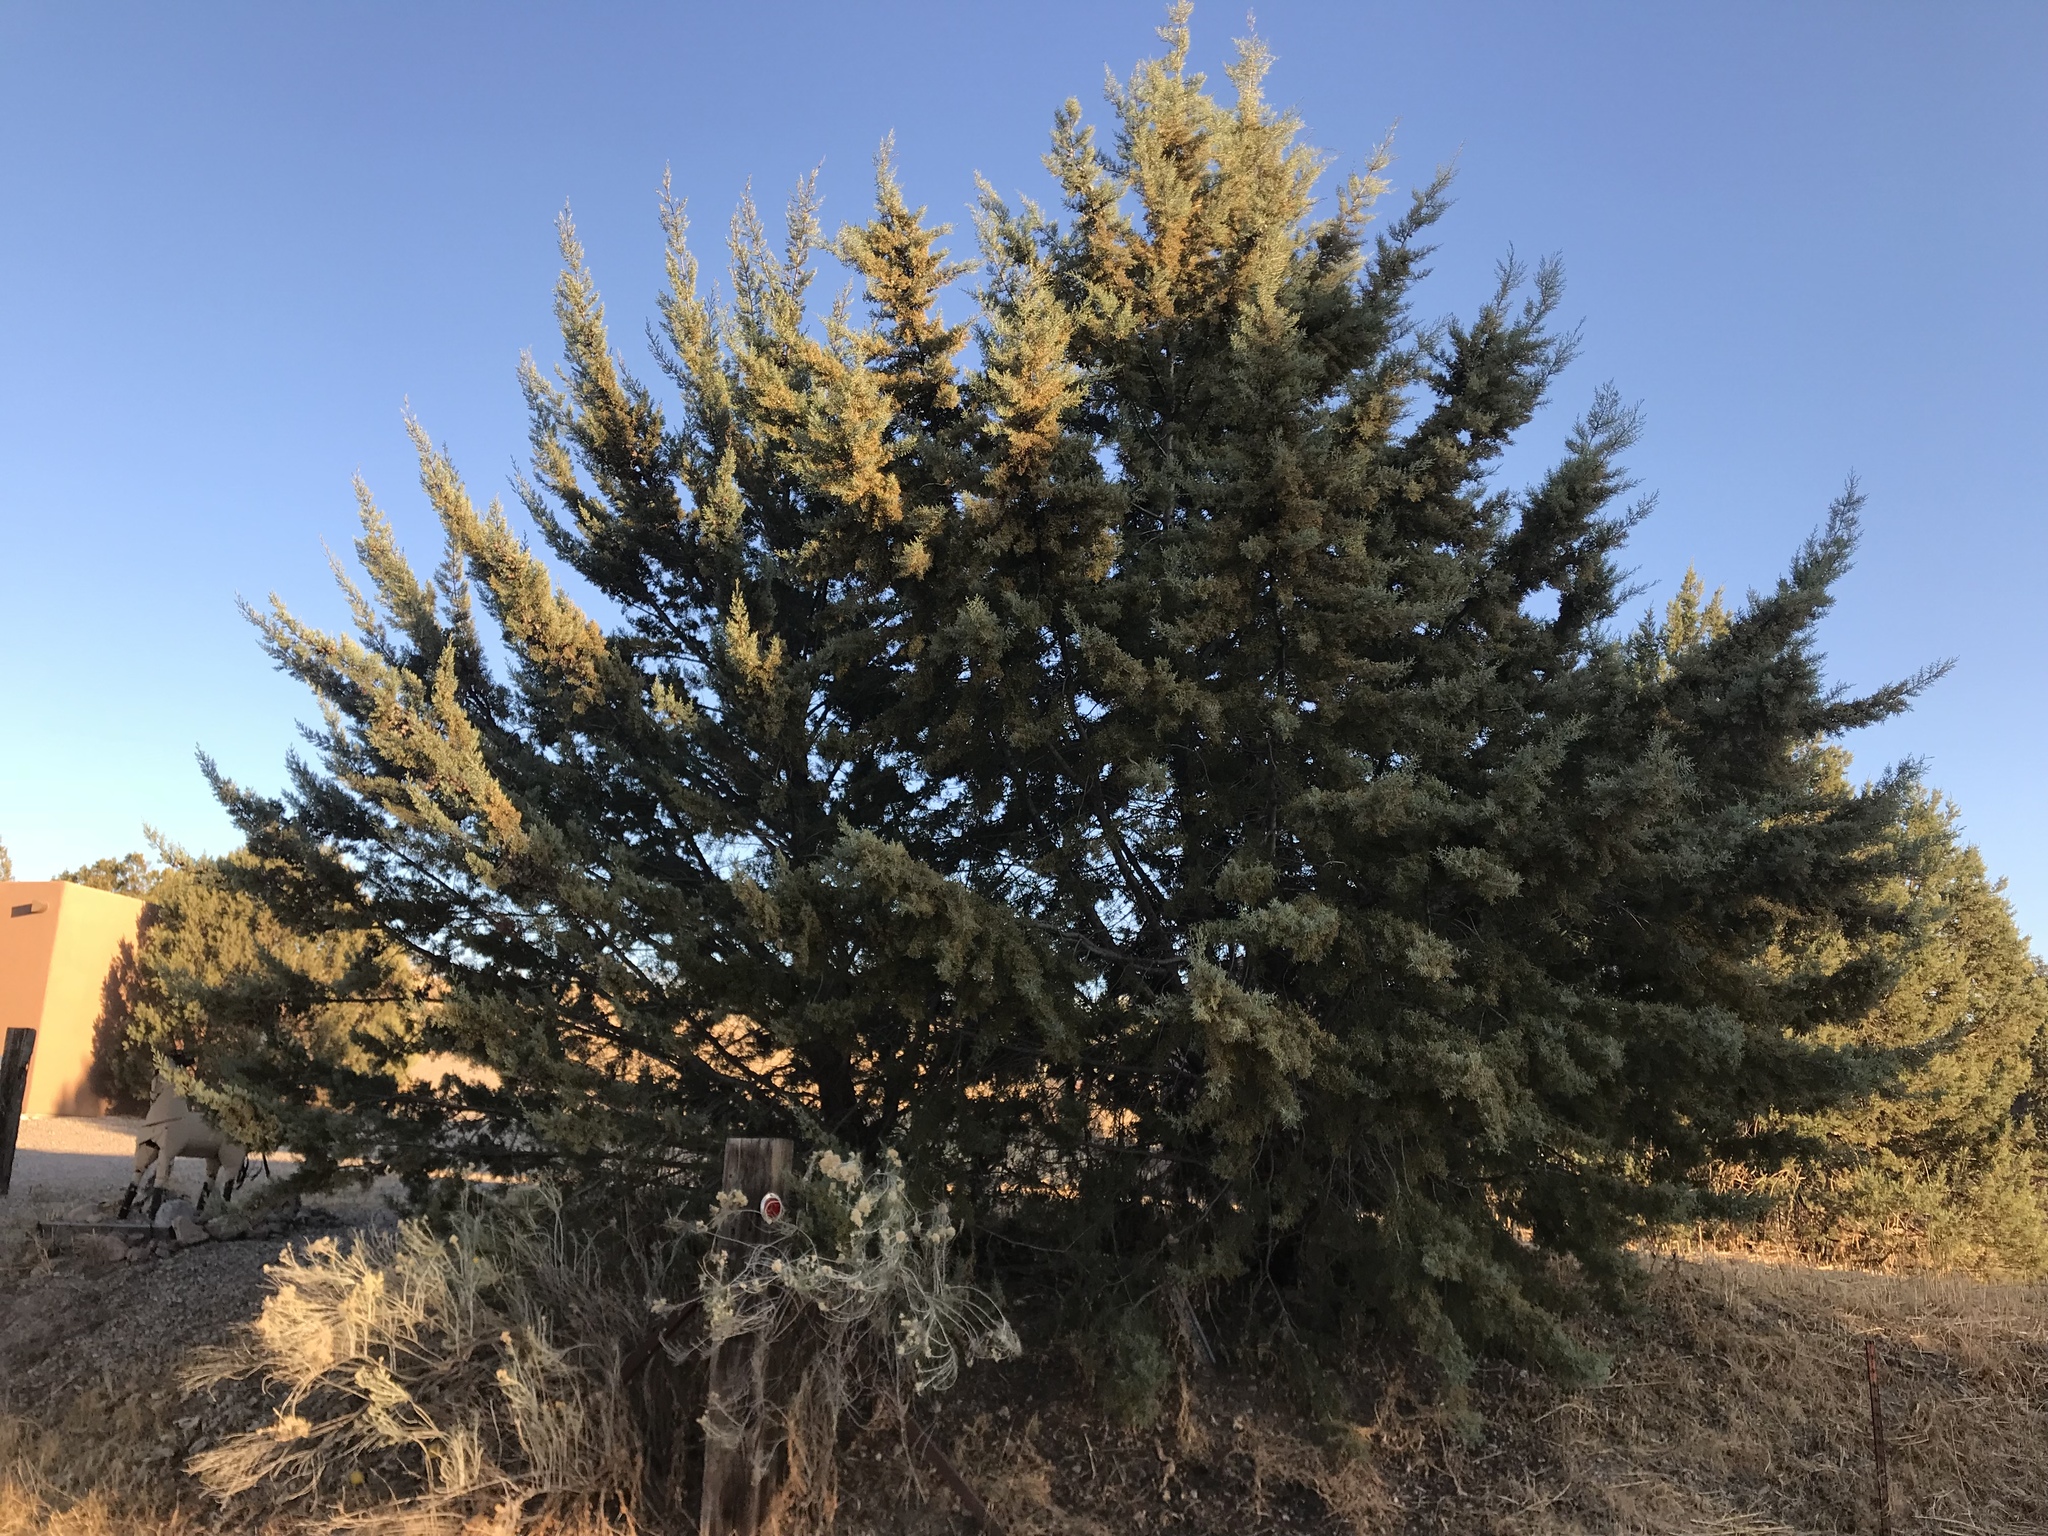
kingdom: Plantae
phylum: Tracheophyta
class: Pinopsida
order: Pinales
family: Cupressaceae
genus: Cupressus
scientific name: Cupressus arizonica
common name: Arizona cypress
